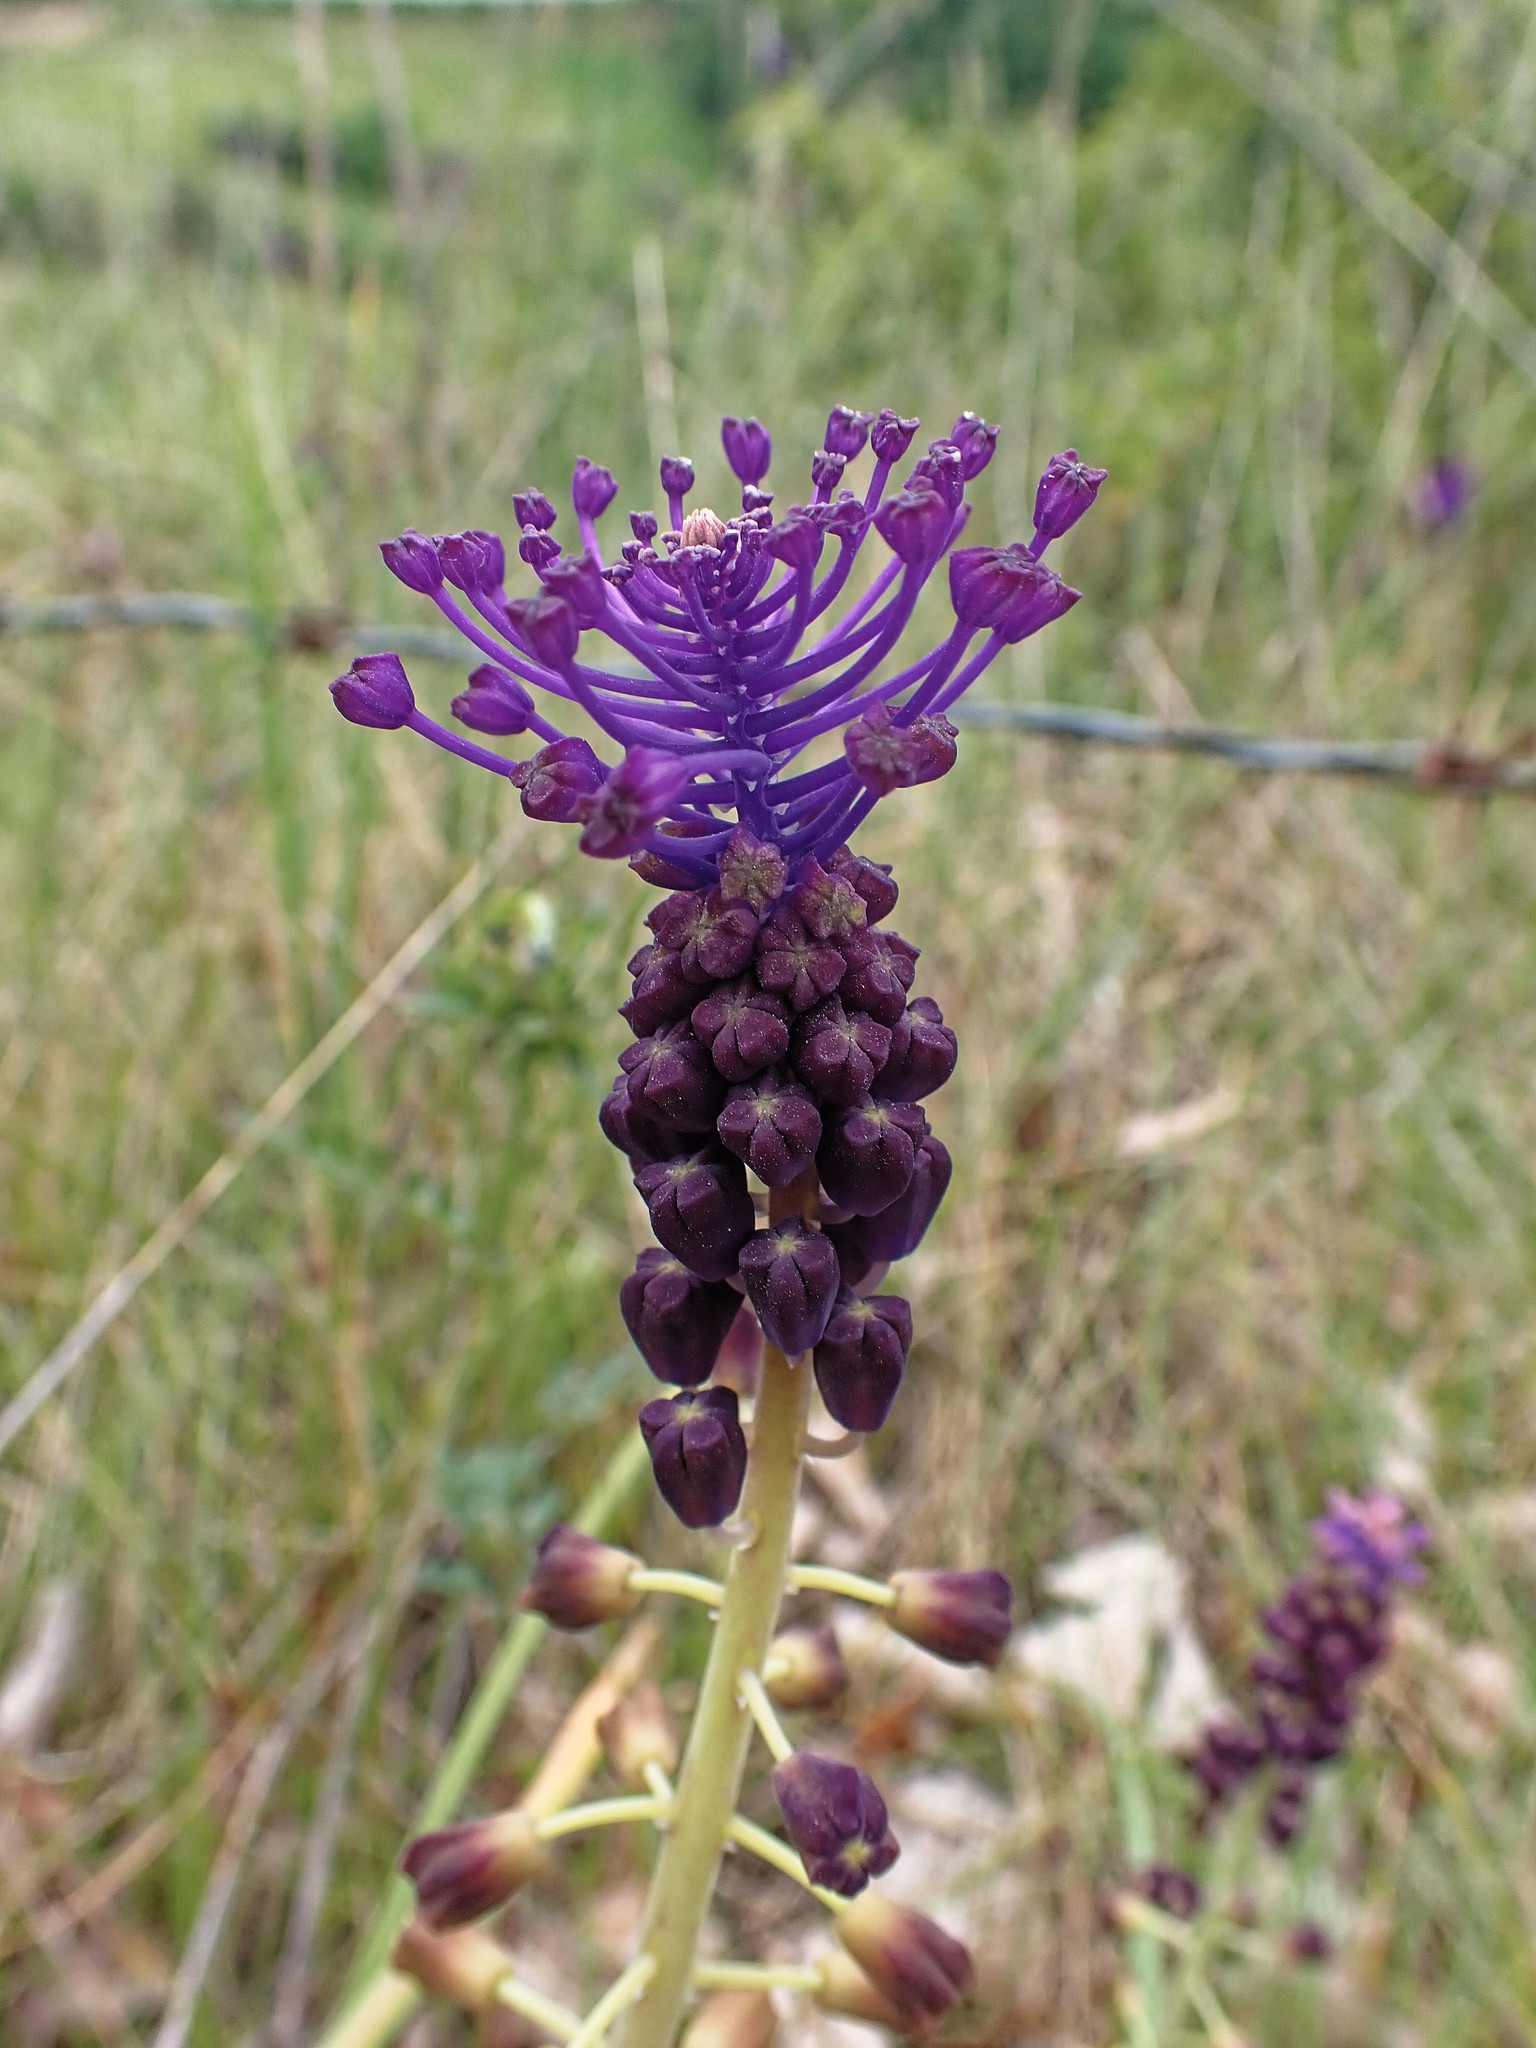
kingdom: Plantae
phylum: Tracheophyta
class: Liliopsida
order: Asparagales
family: Asparagaceae
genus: Muscari
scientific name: Muscari comosum
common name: Tassel hyacinth
